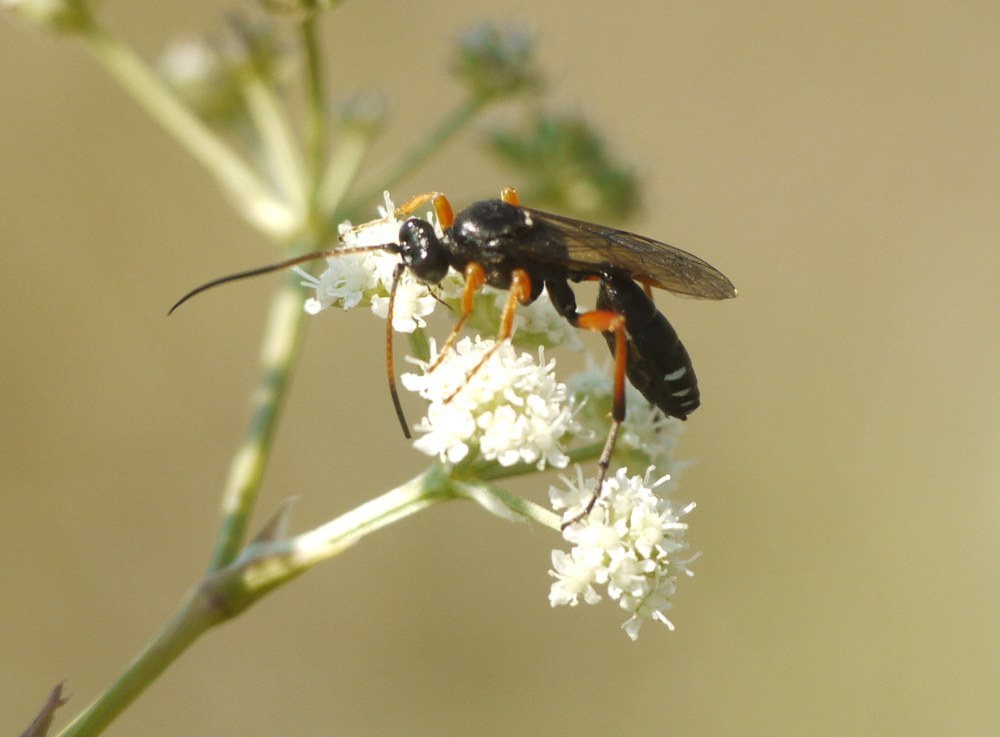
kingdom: Animalia
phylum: Arthropoda
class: Insecta
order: Hymenoptera
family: Ichneumonidae
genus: Eutanyacra
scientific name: Eutanyacra glaucatoria
